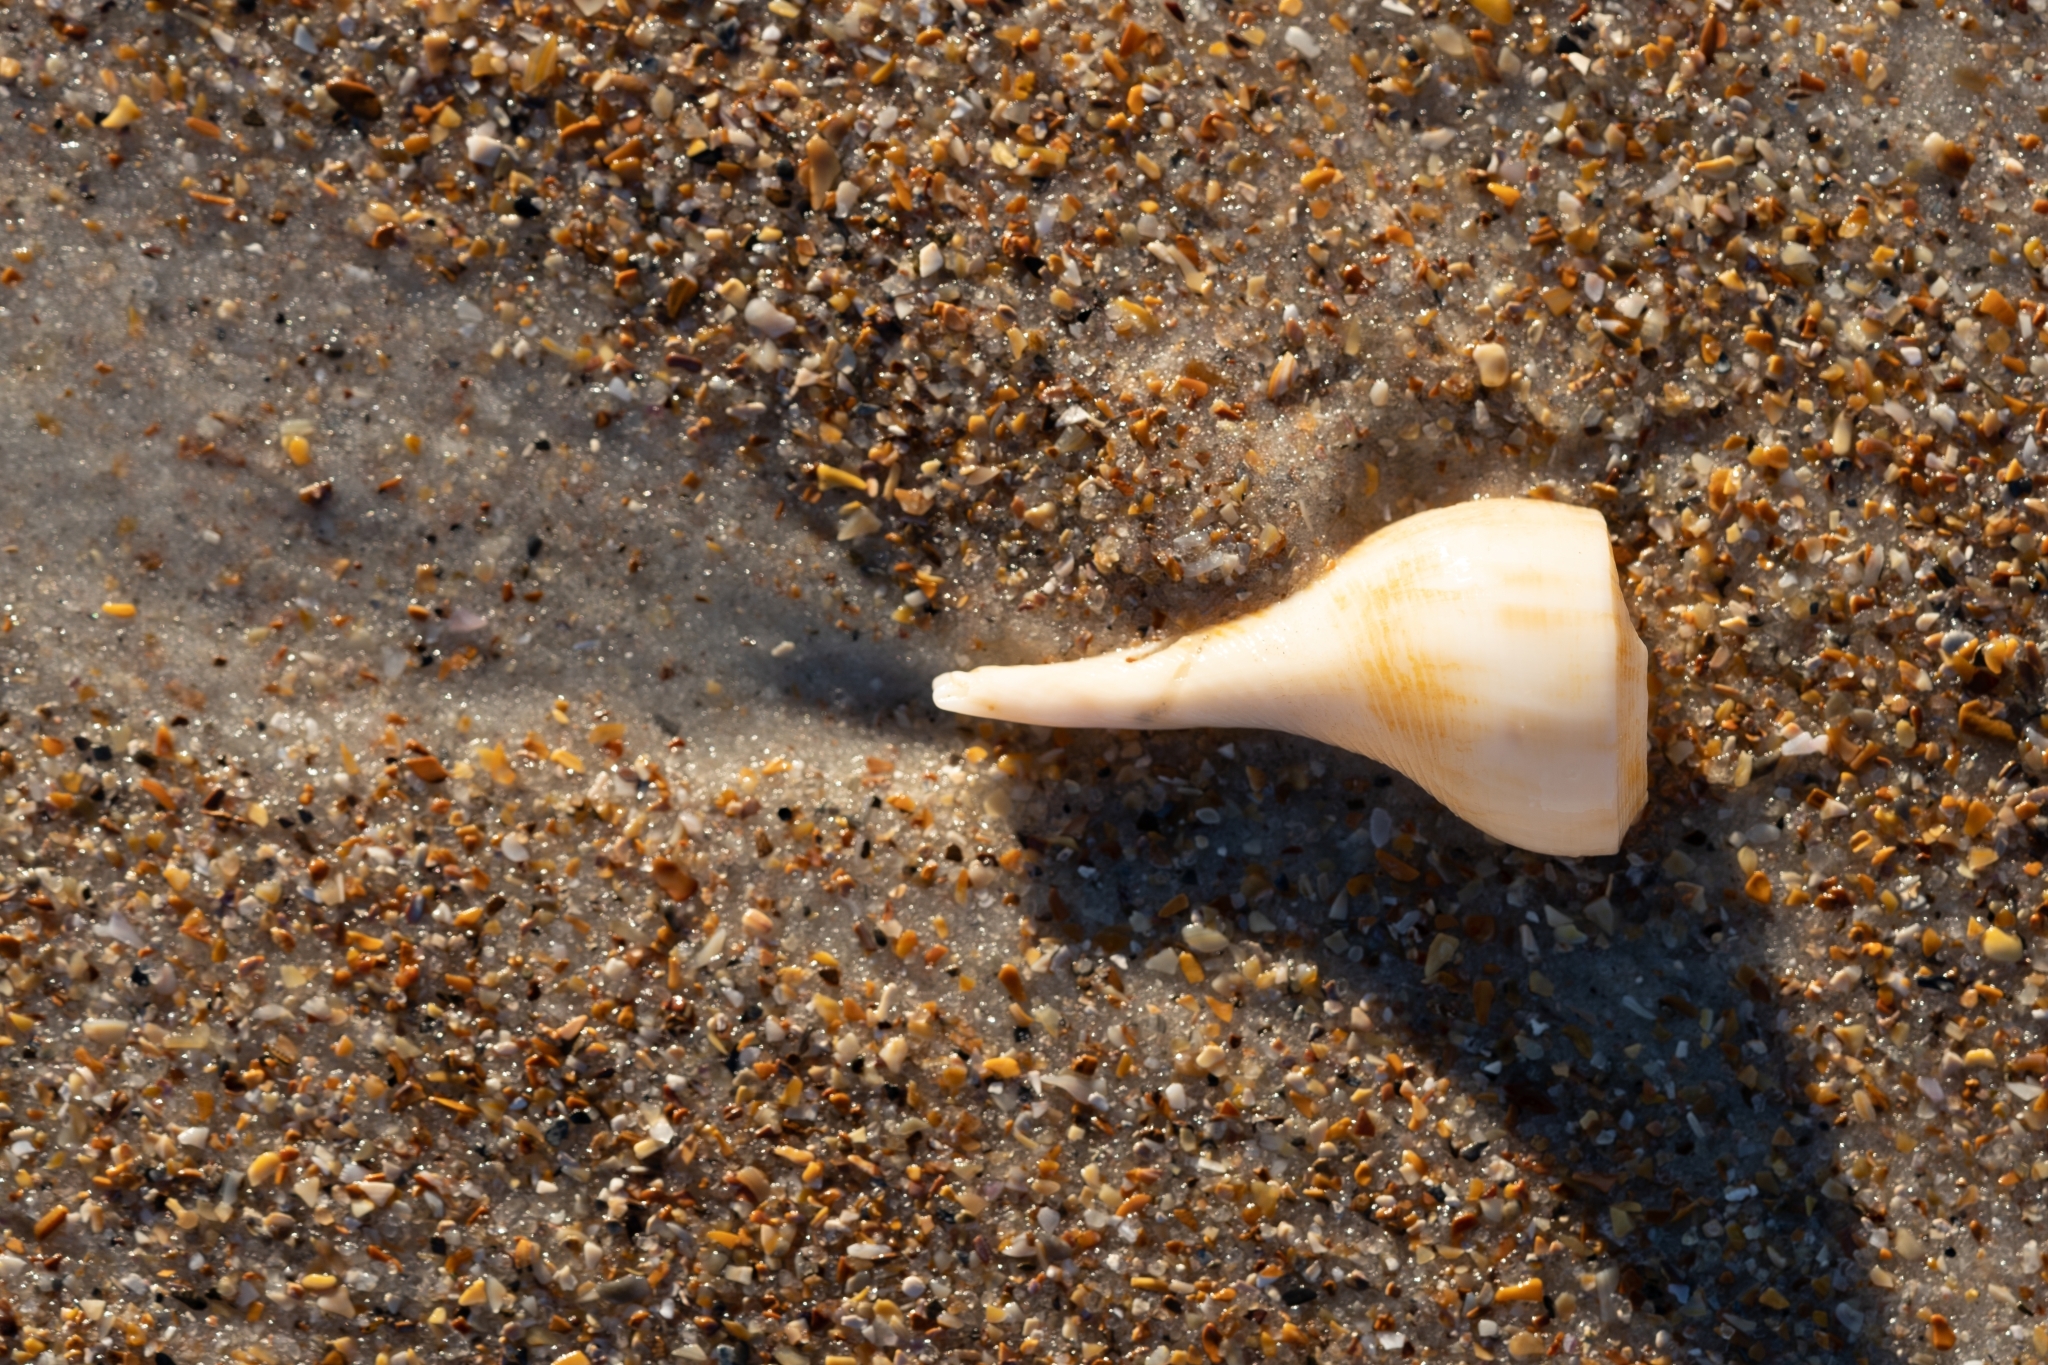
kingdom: Animalia
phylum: Mollusca
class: Gastropoda
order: Neogastropoda
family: Busyconidae
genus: Fulguropsis
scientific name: Fulguropsis pyruloides
